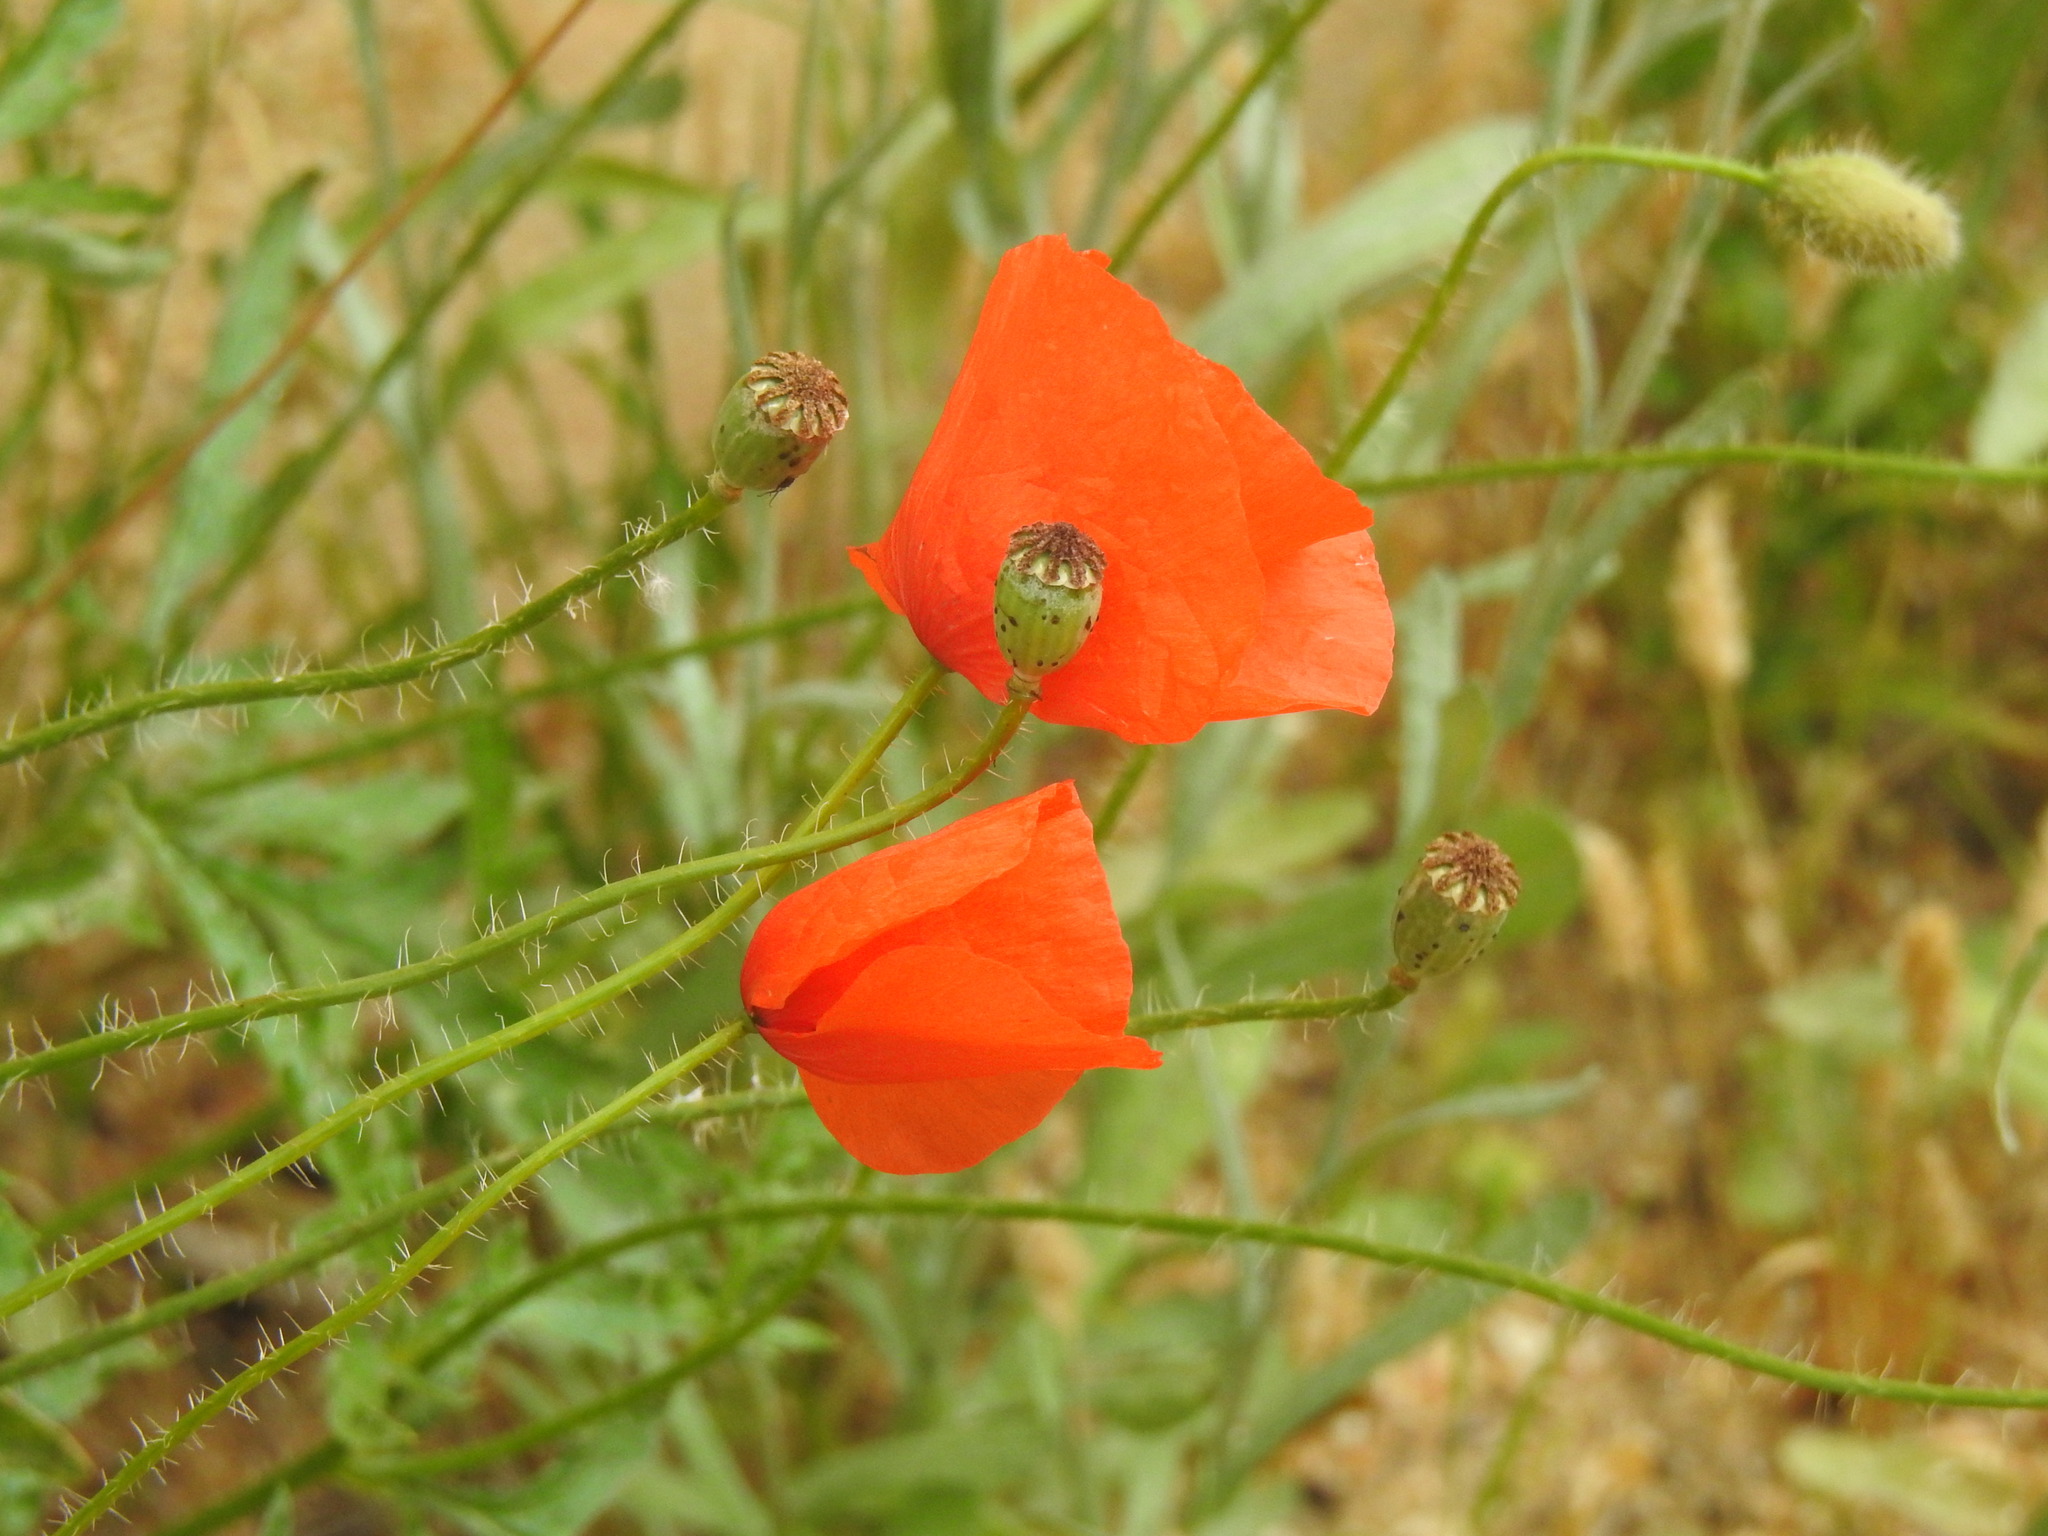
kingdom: Plantae
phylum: Tracheophyta
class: Magnoliopsida
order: Ranunculales
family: Papaveraceae
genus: Papaver
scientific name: Papaver rhoeas
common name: Corn poppy
